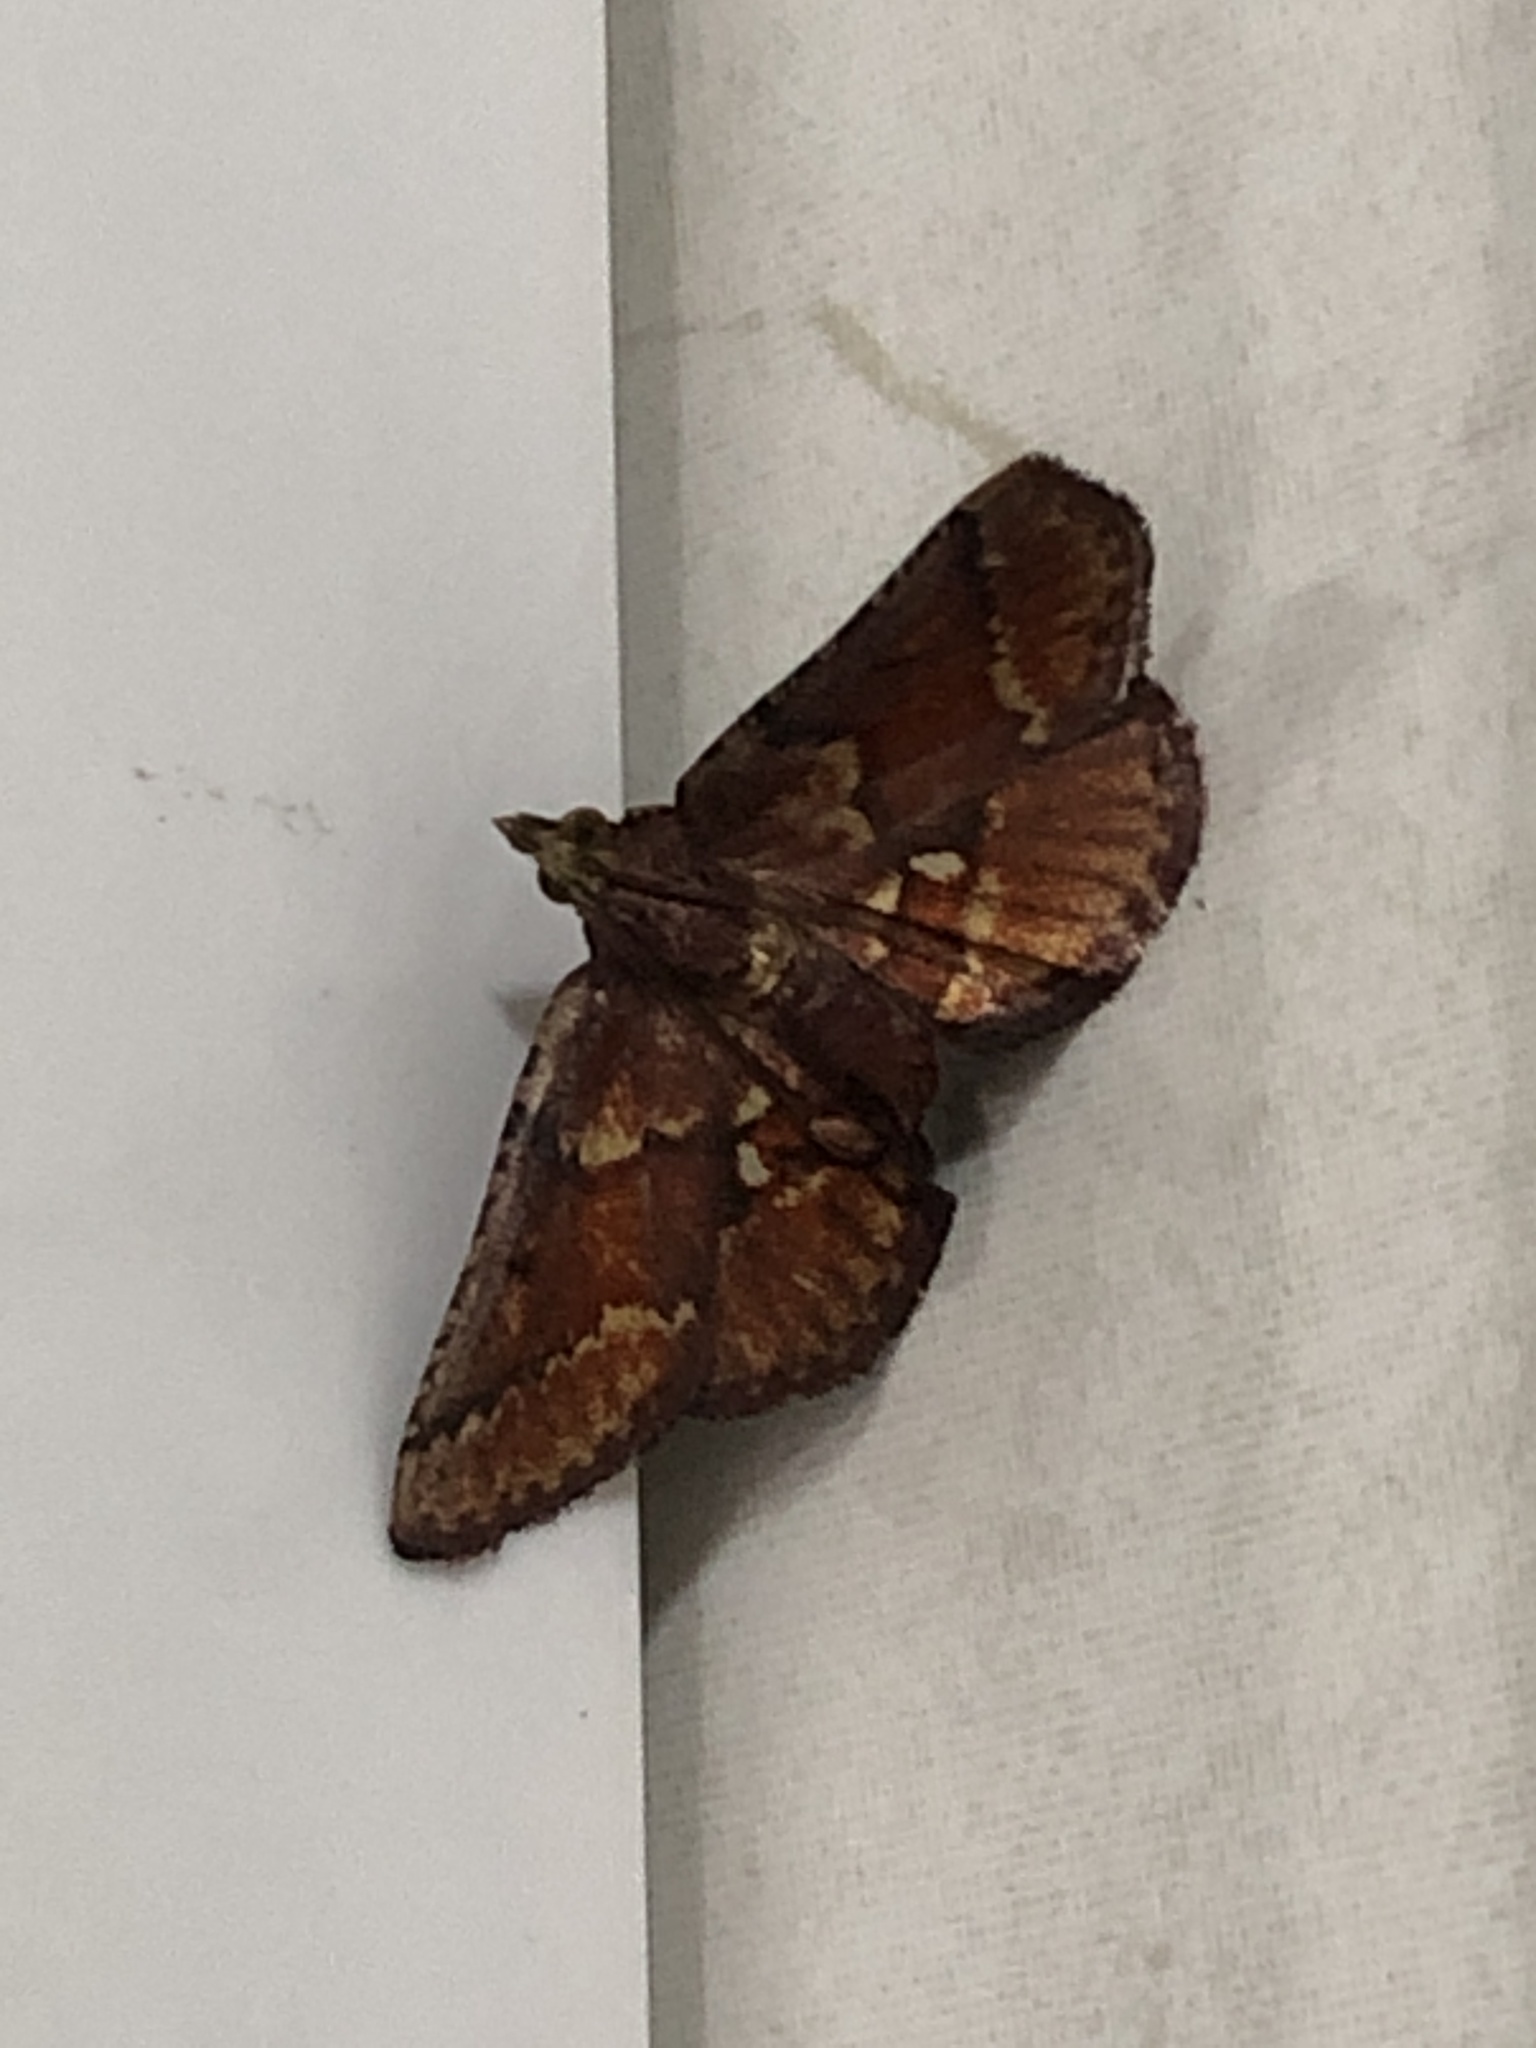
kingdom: Animalia
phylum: Arthropoda
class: Insecta
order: Lepidoptera
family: Pyralidae
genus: Zitha
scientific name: Zitha
